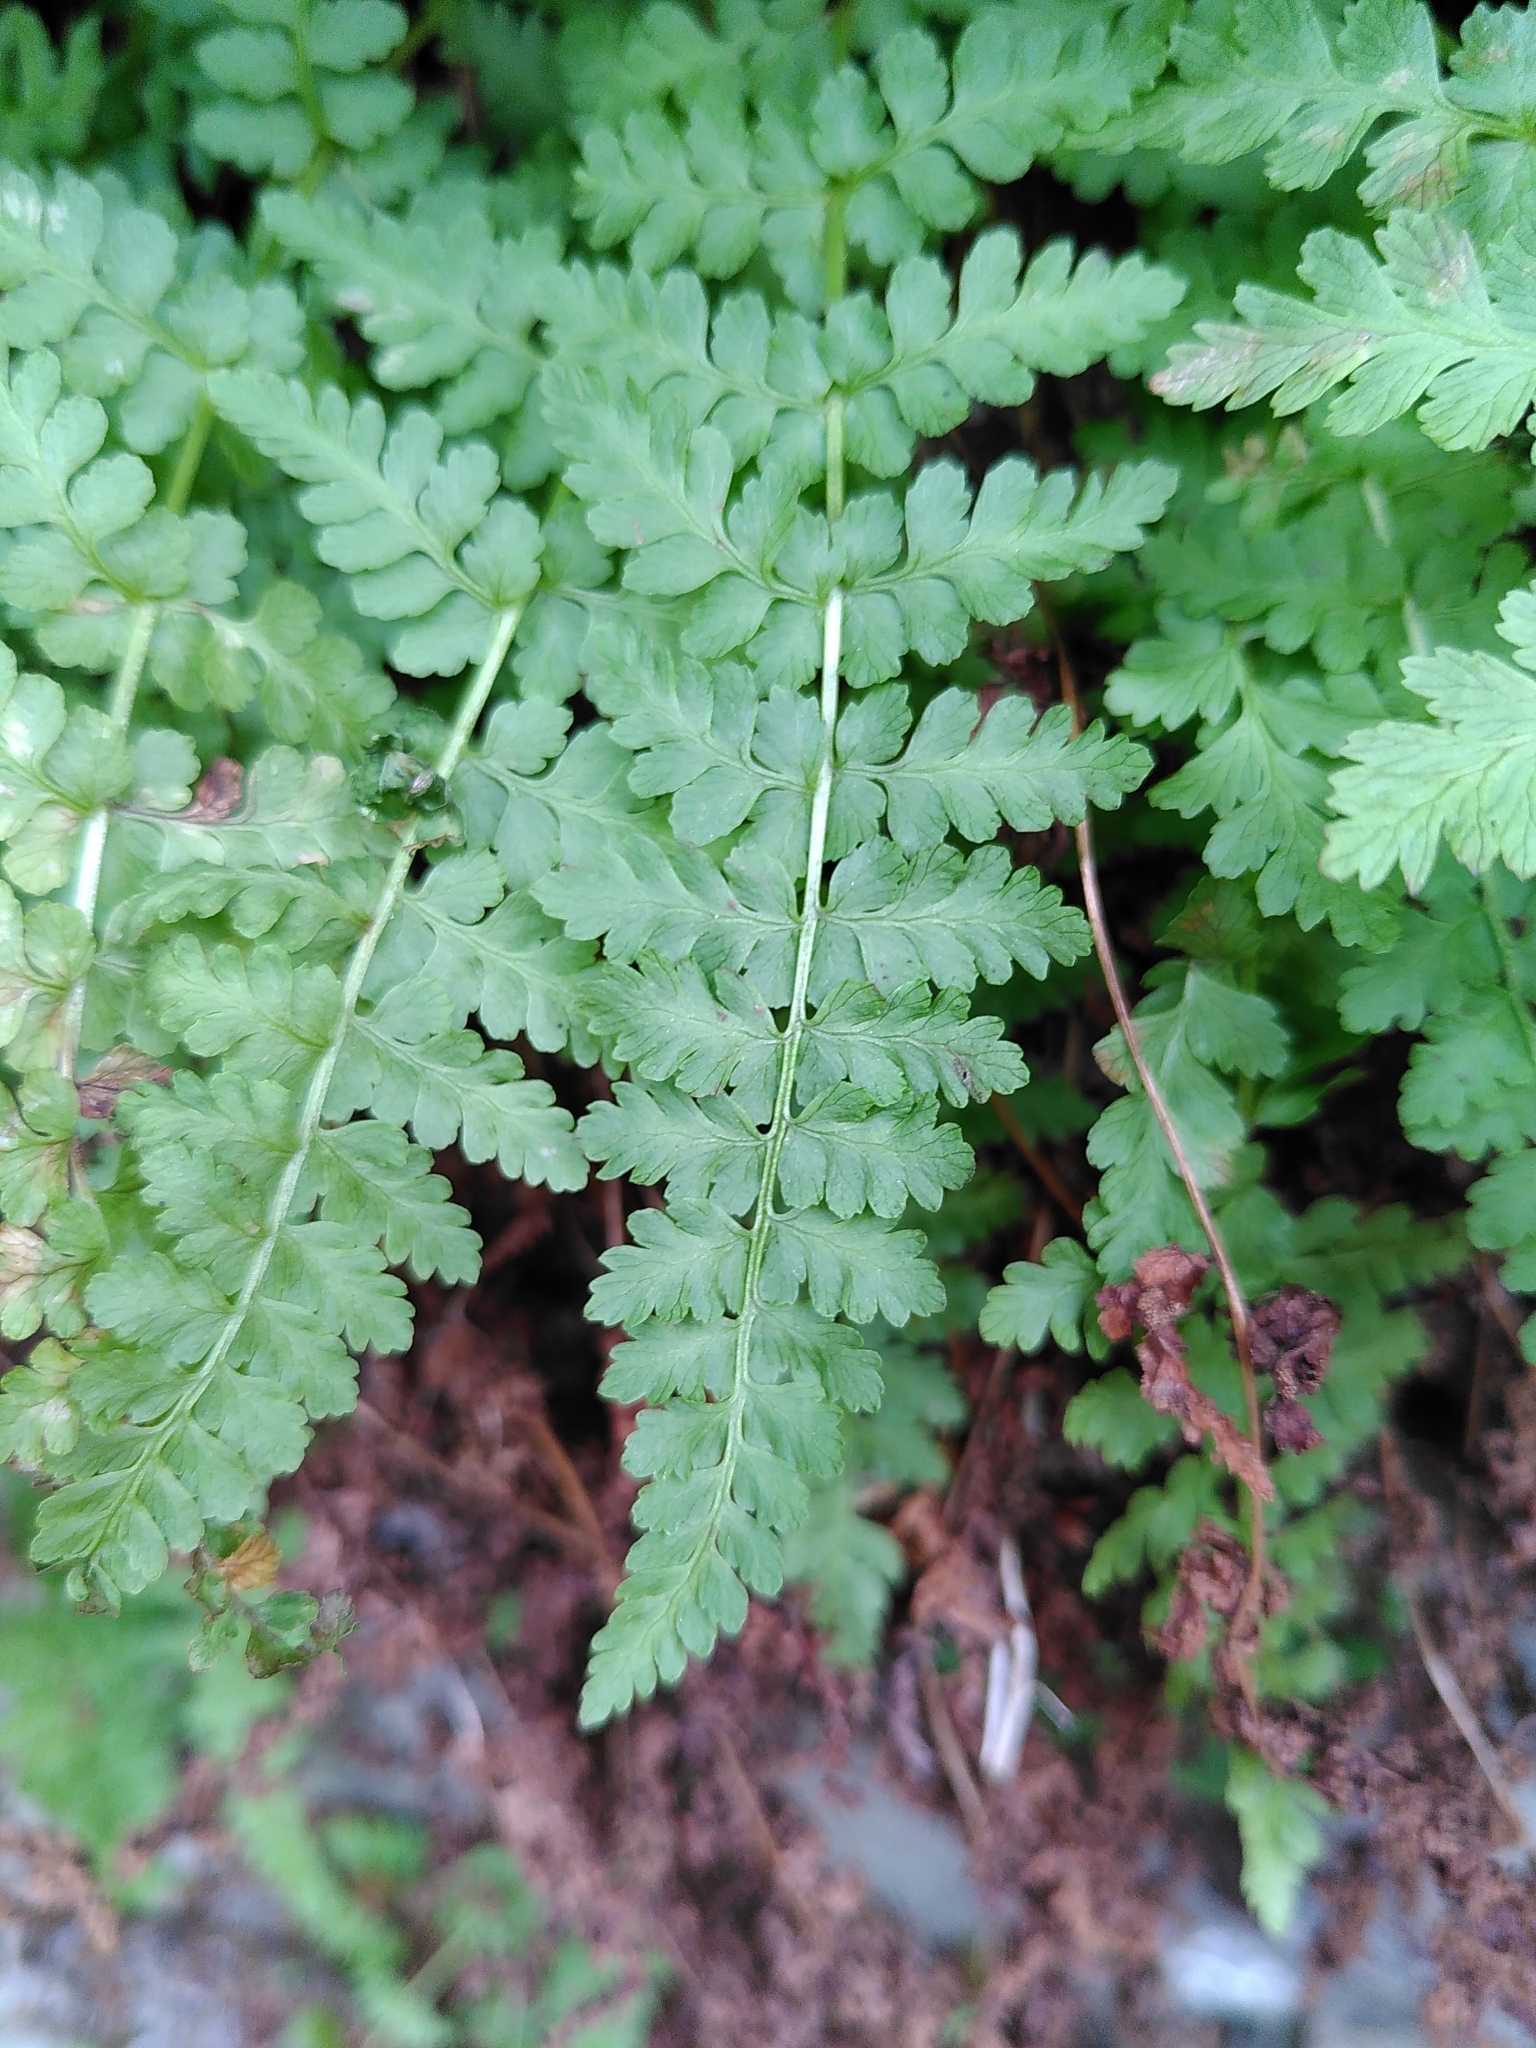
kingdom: Plantae
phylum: Tracheophyta
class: Polypodiopsida
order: Polypodiales
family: Cystopteridaceae
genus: Cystopteris
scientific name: Cystopteris fragilis
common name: Brittle bladder fern
